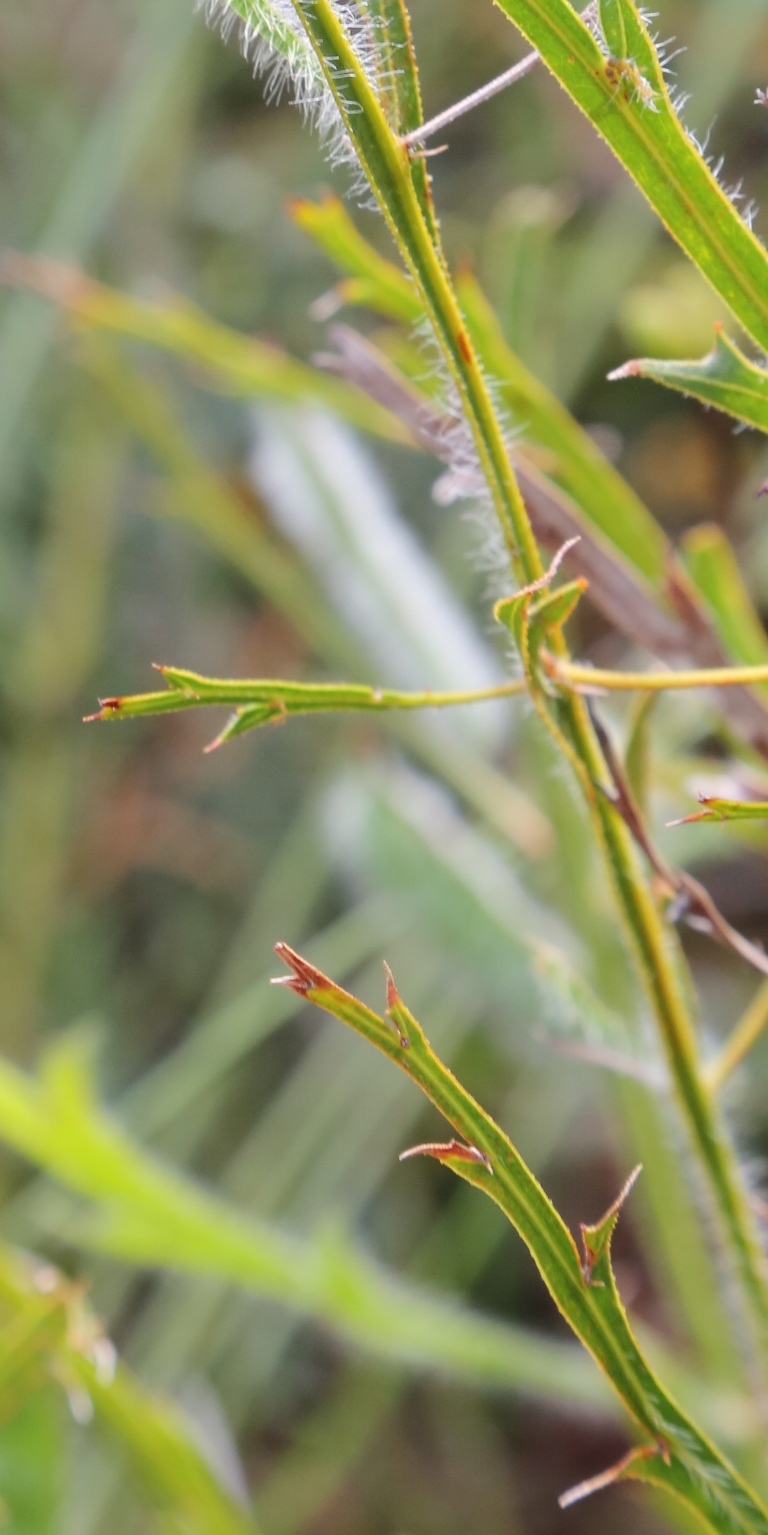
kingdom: Plantae
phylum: Tracheophyta
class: Magnoliopsida
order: Fabales
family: Fabaceae
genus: Acacia
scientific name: Acacia alata
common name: Winged wattle
